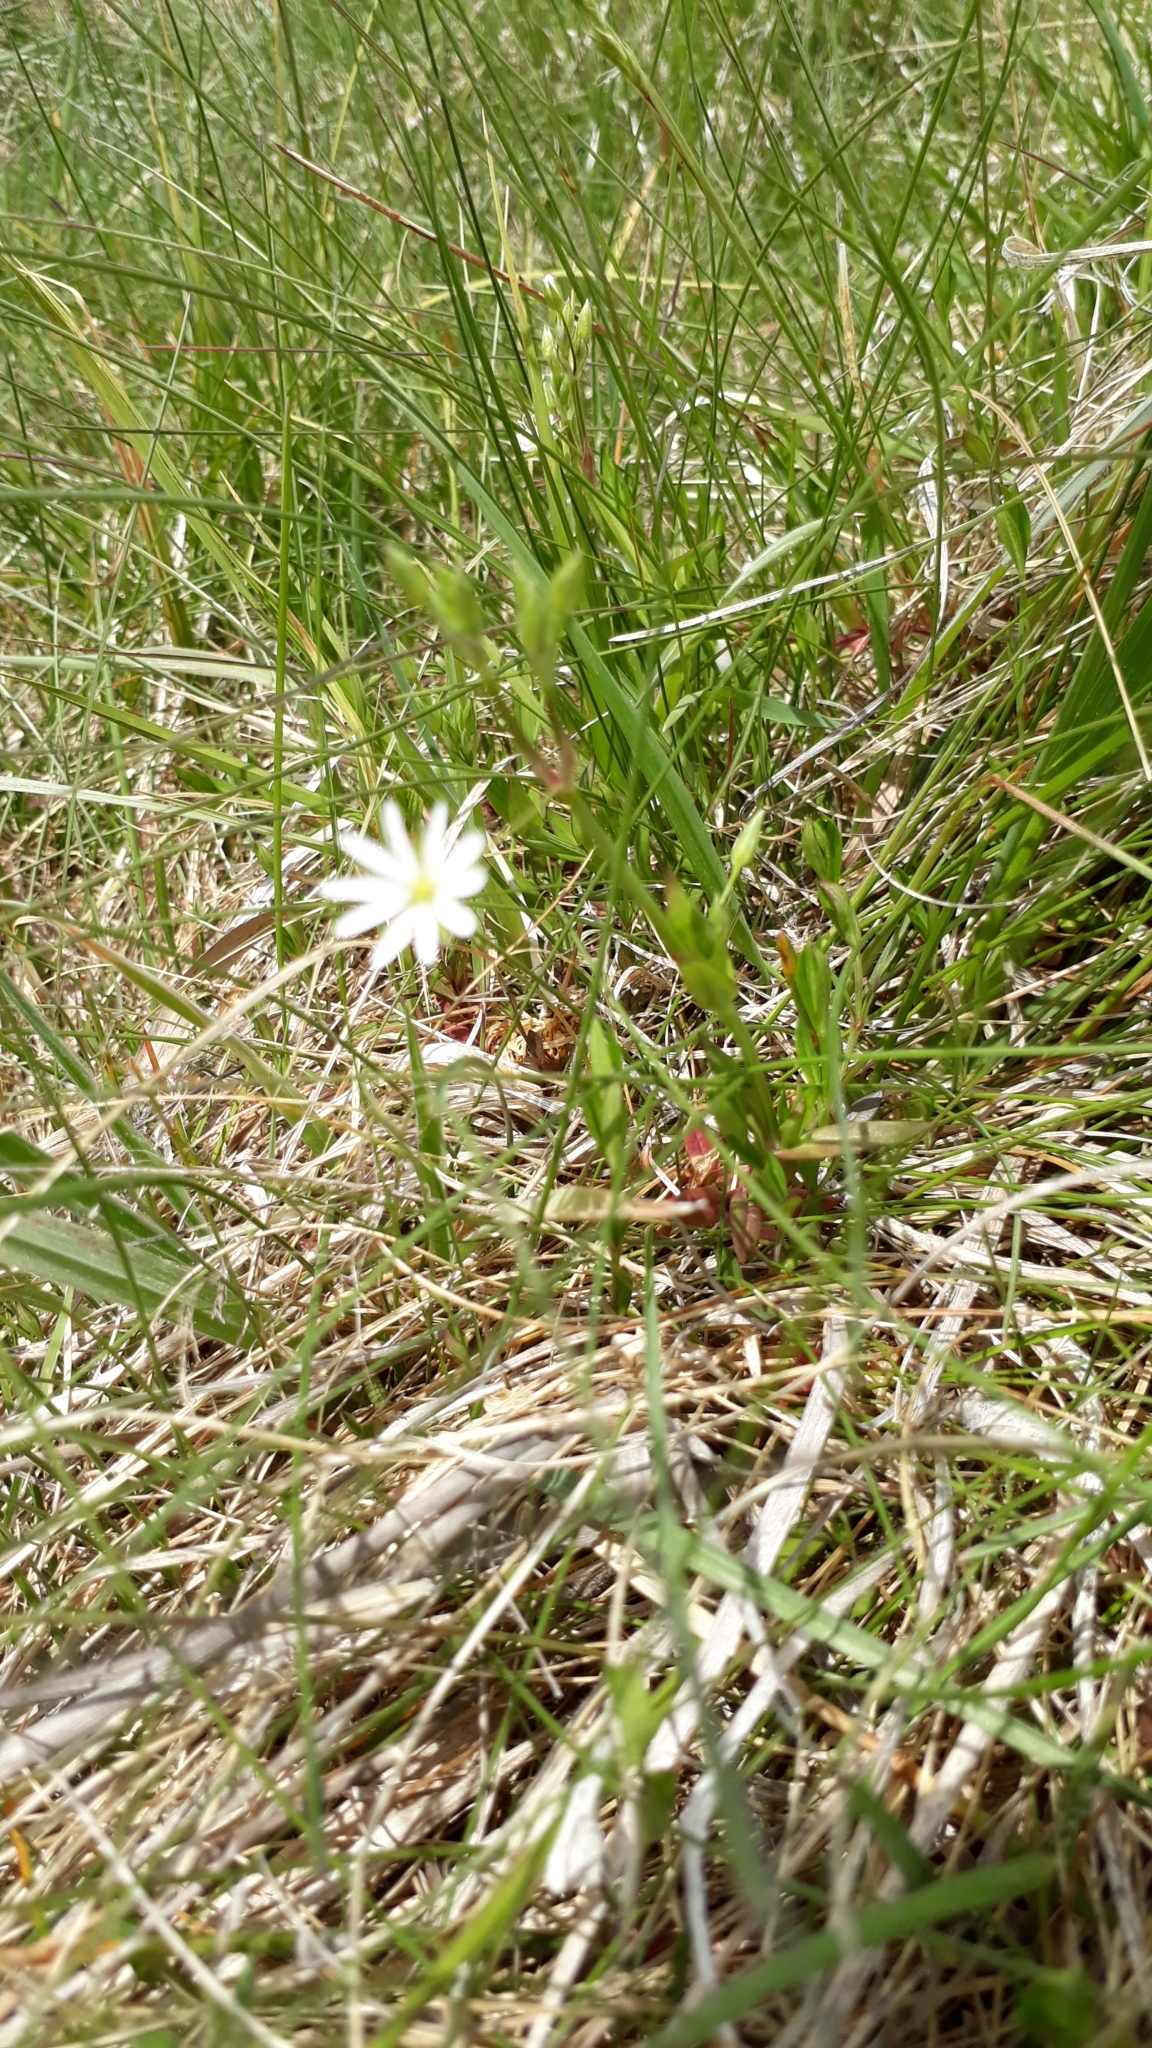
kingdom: Plantae
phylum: Tracheophyta
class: Magnoliopsida
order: Caryophyllales
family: Caryophyllaceae
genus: Stellaria
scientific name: Stellaria graminea
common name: Grass-like starwort
